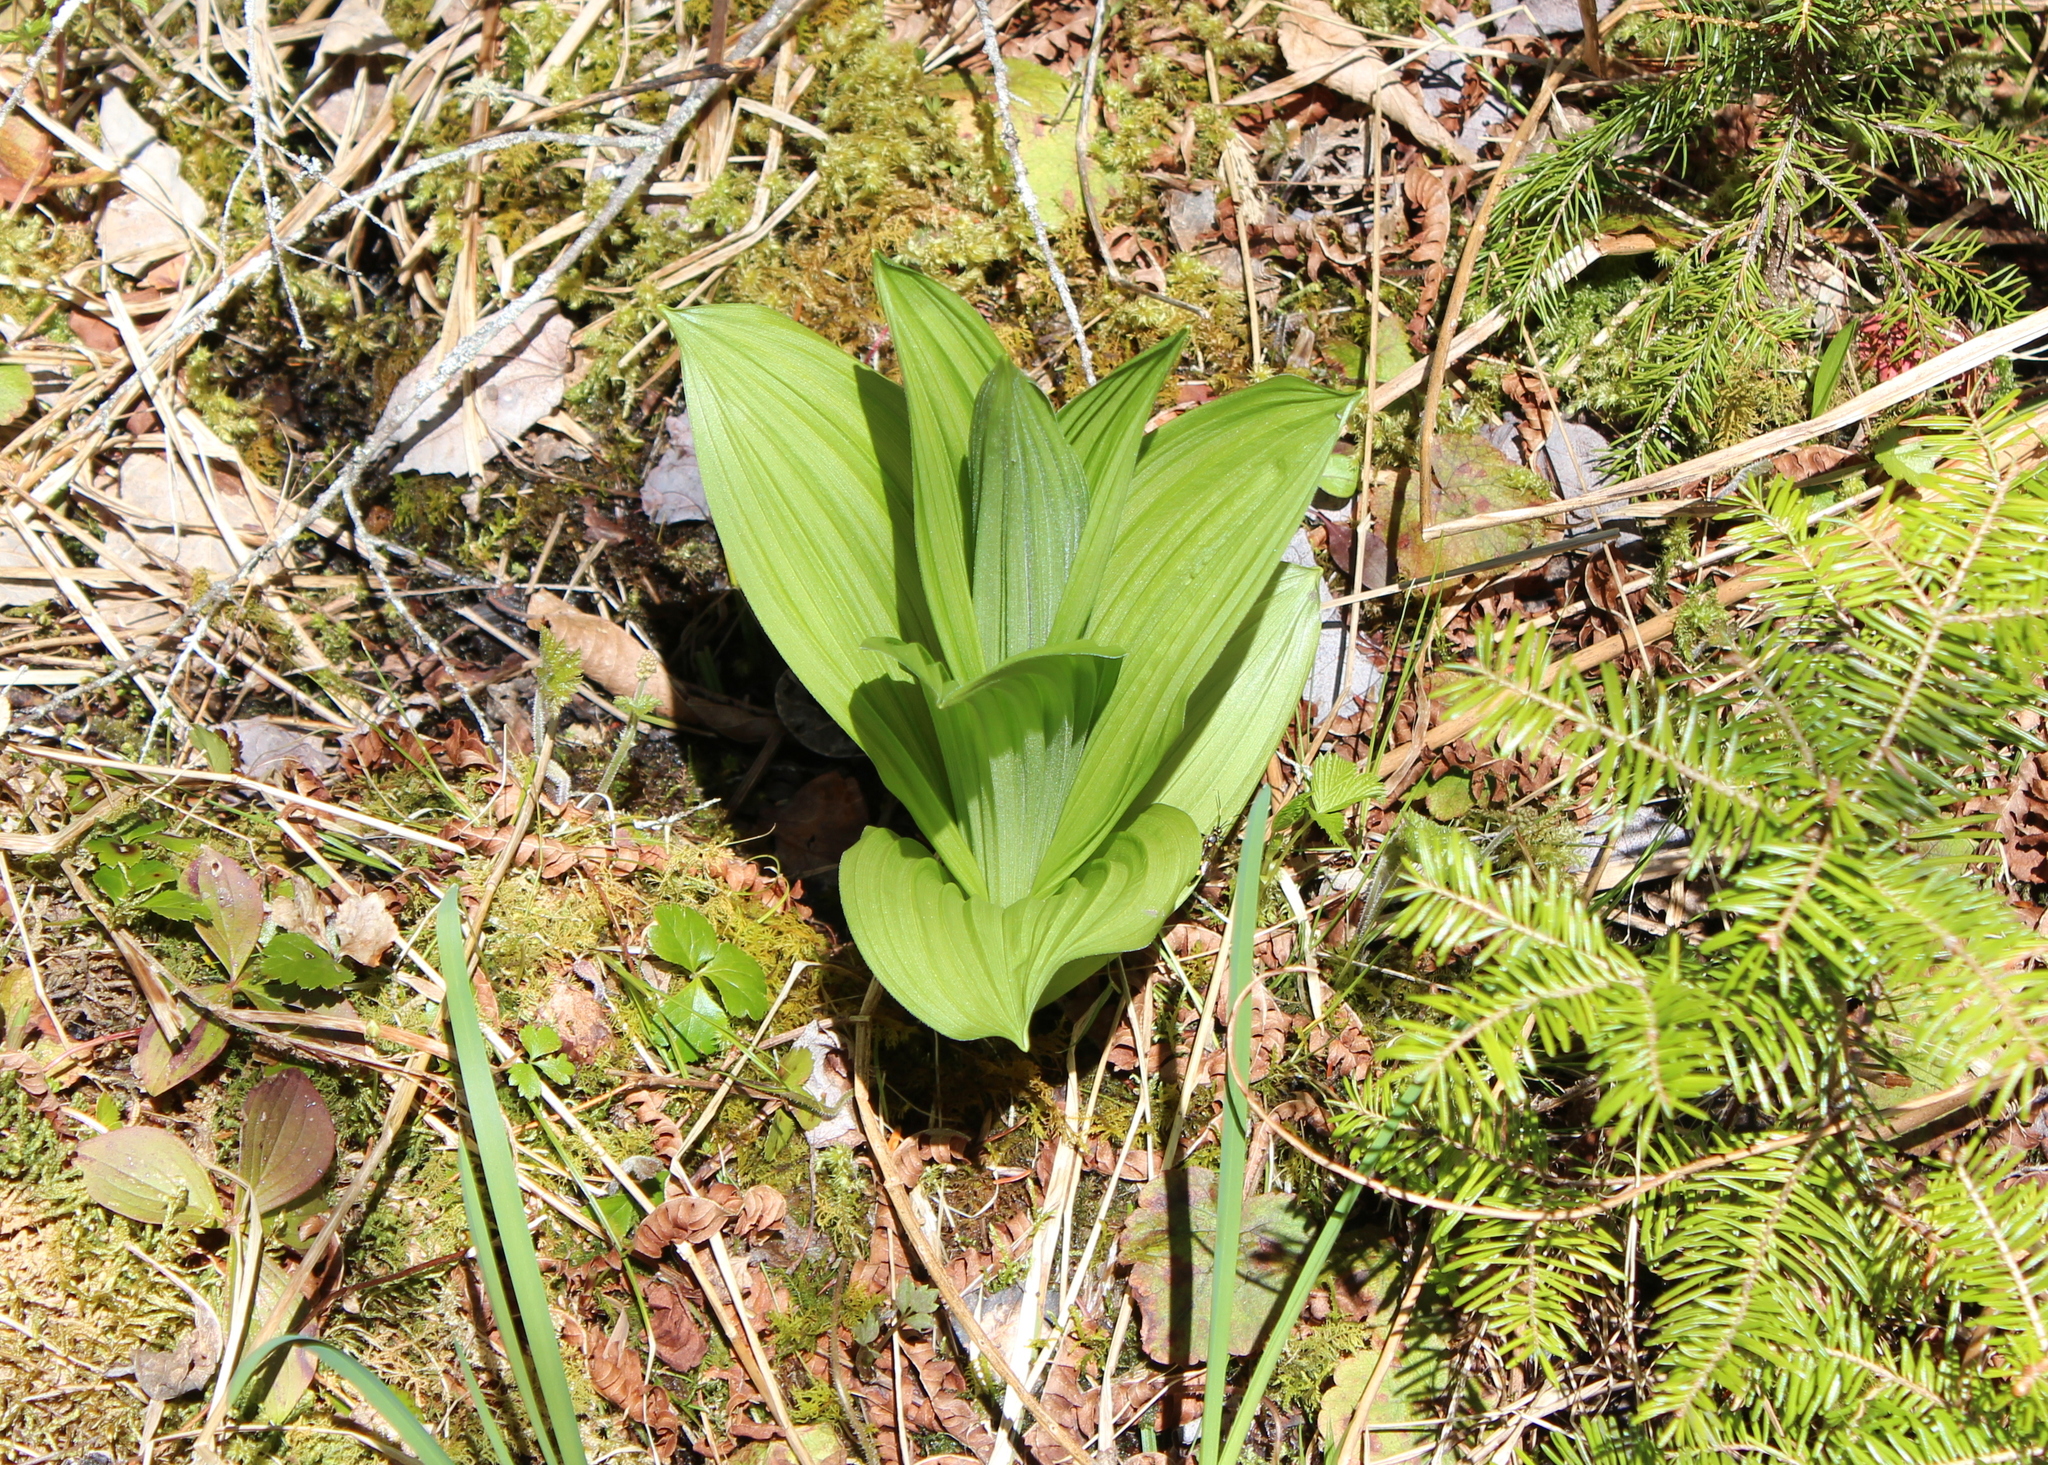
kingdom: Plantae
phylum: Tracheophyta
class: Liliopsida
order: Liliales
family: Melanthiaceae
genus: Veratrum
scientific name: Veratrum viride
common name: American false hellebore
